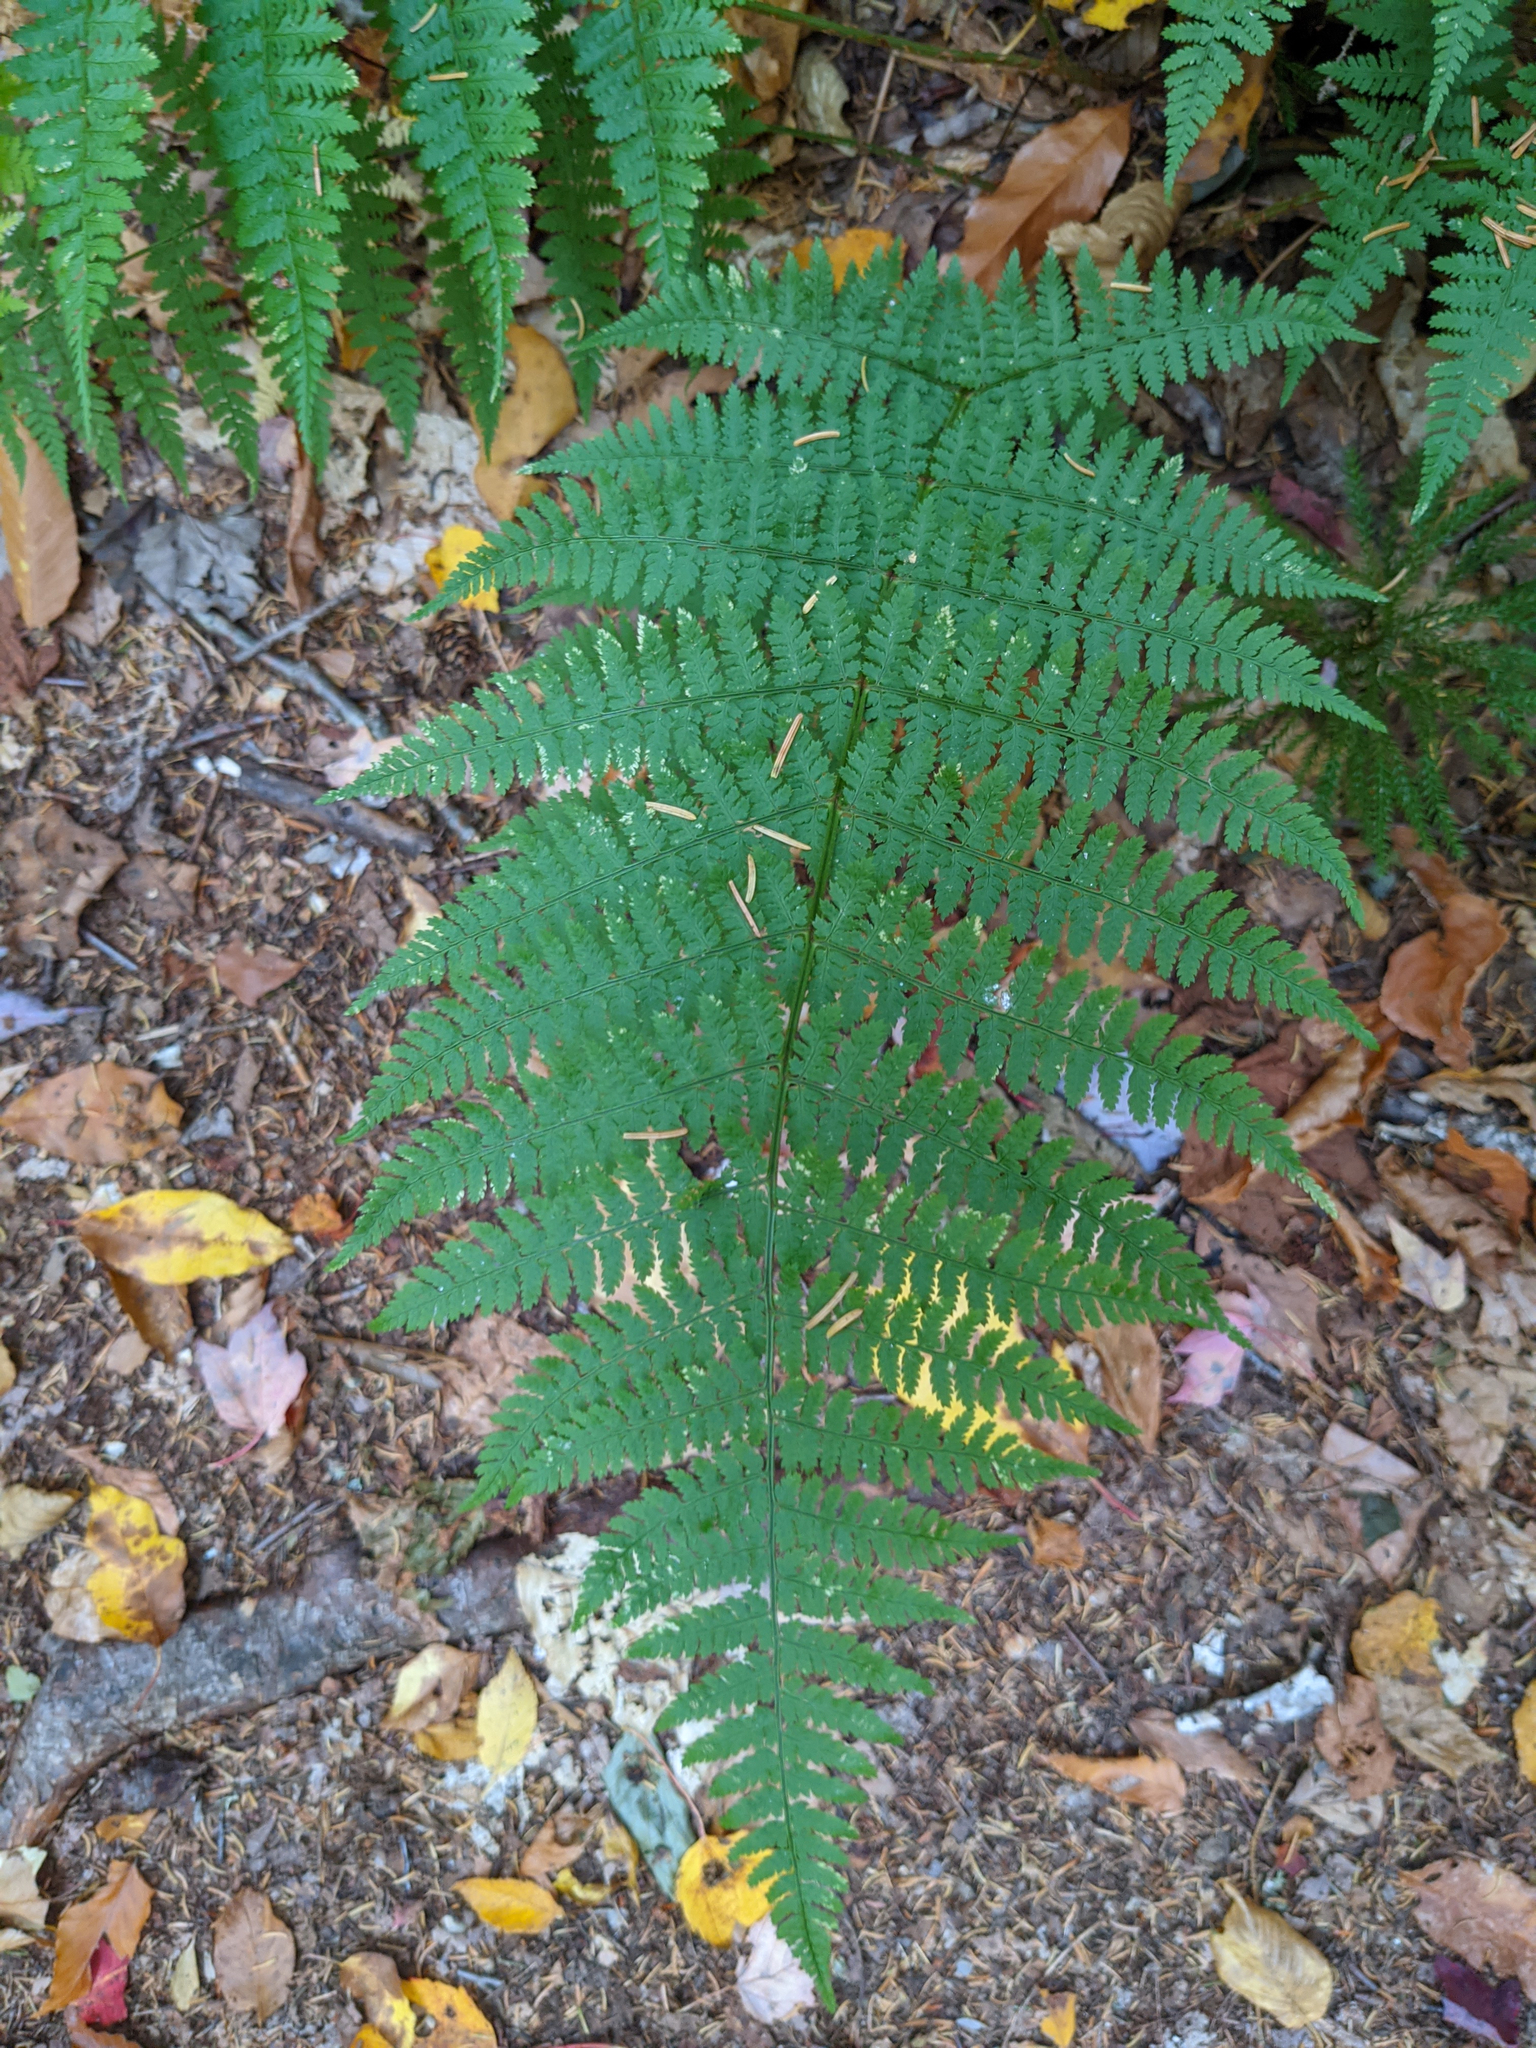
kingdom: Plantae
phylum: Tracheophyta
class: Polypodiopsida
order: Polypodiales
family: Dryopteridaceae
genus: Dryopteris
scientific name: Dryopteris intermedia
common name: Evergreen wood fern
